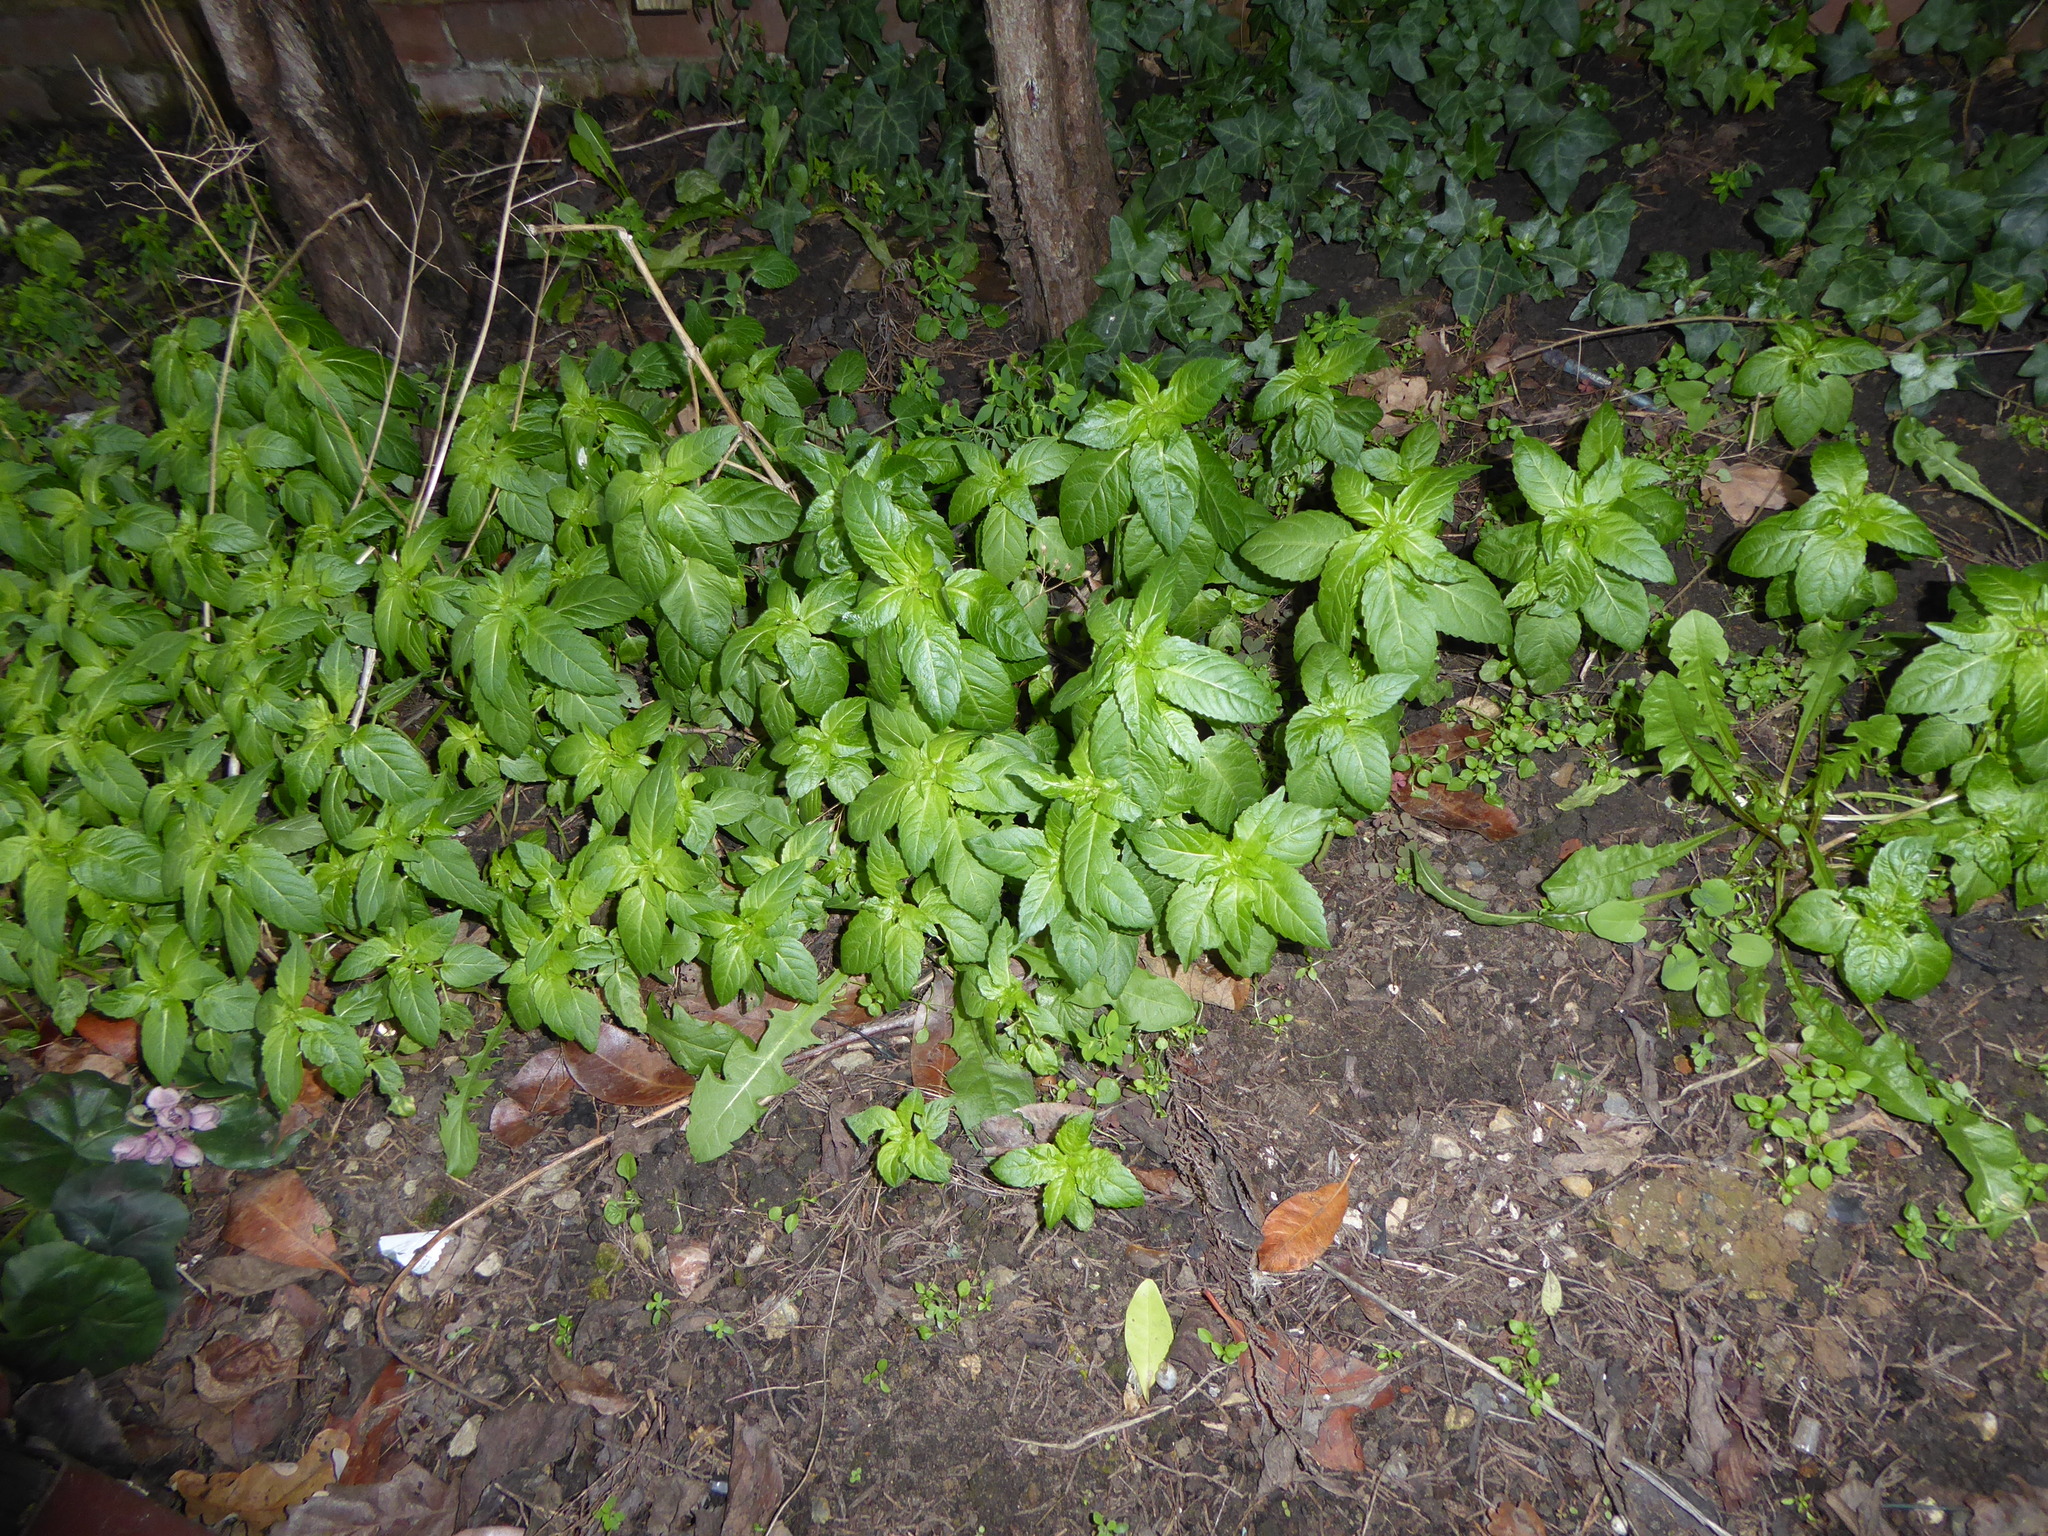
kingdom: Plantae
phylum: Tracheophyta
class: Magnoliopsida
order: Malpighiales
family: Euphorbiaceae
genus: Mercurialis
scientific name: Mercurialis annua
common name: Annual mercury
